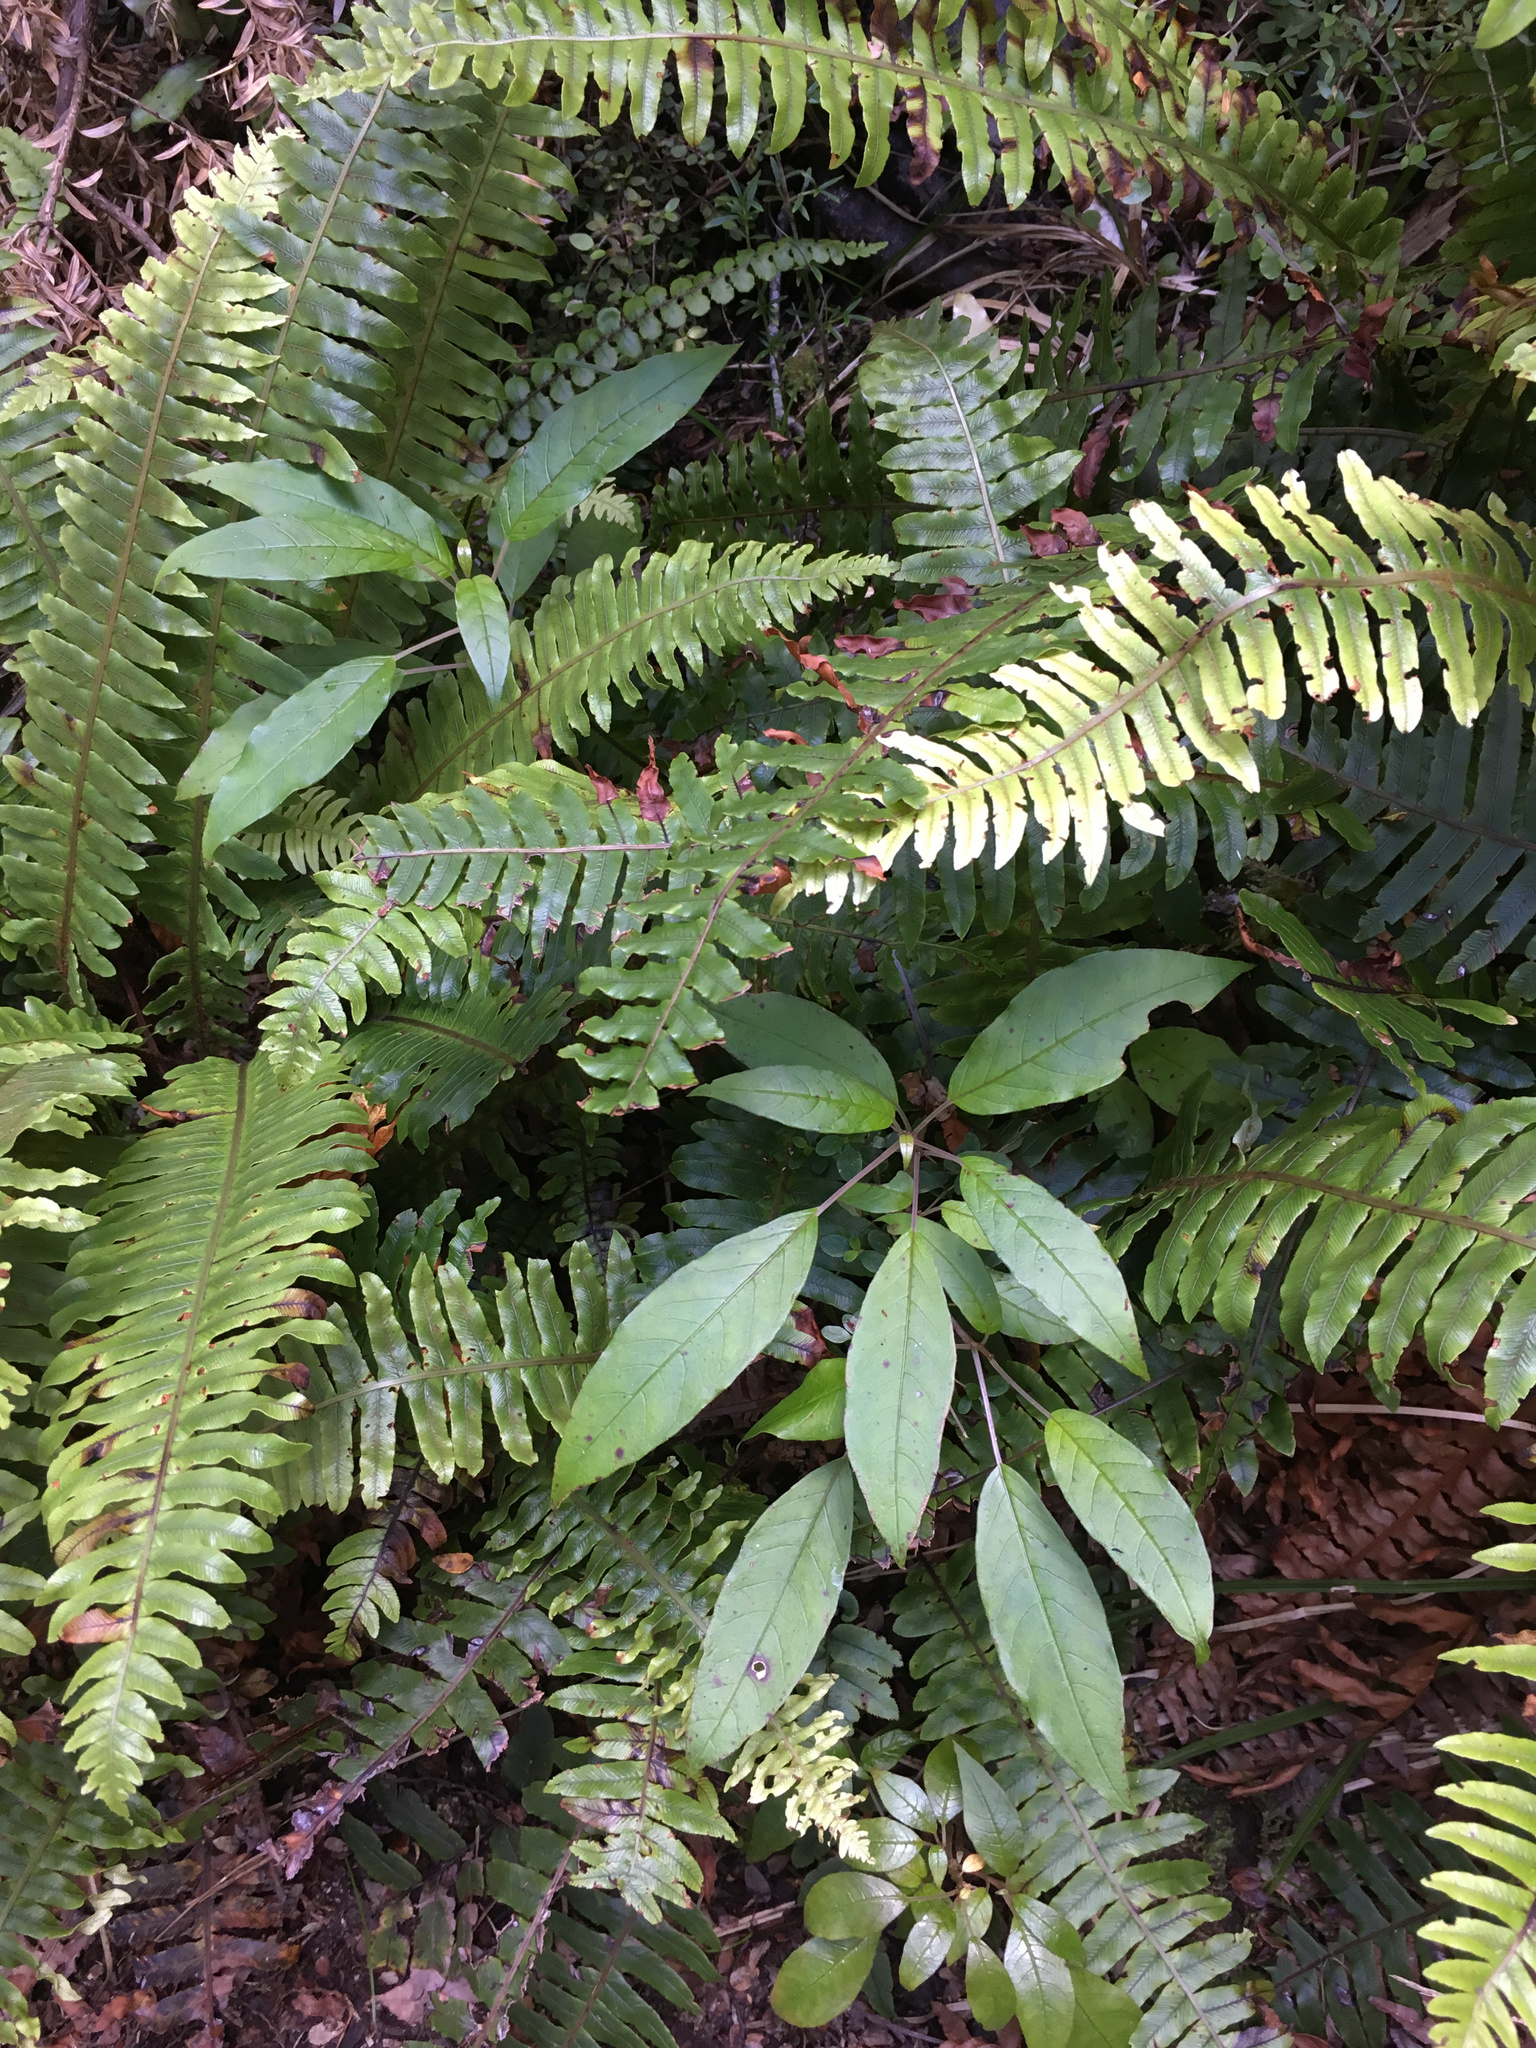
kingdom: Plantae
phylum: Tracheophyta
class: Magnoliopsida
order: Myrtales
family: Onagraceae
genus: Fuchsia
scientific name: Fuchsia excorticata
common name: Tree fuchsia
